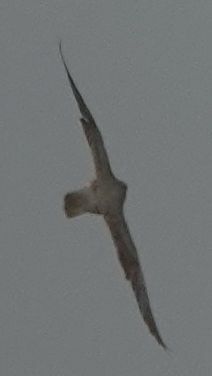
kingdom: Animalia
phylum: Chordata
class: Aves
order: Falconiformes
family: Falconidae
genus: Falco
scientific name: Falco subbuteo
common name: Eurasian hobby
